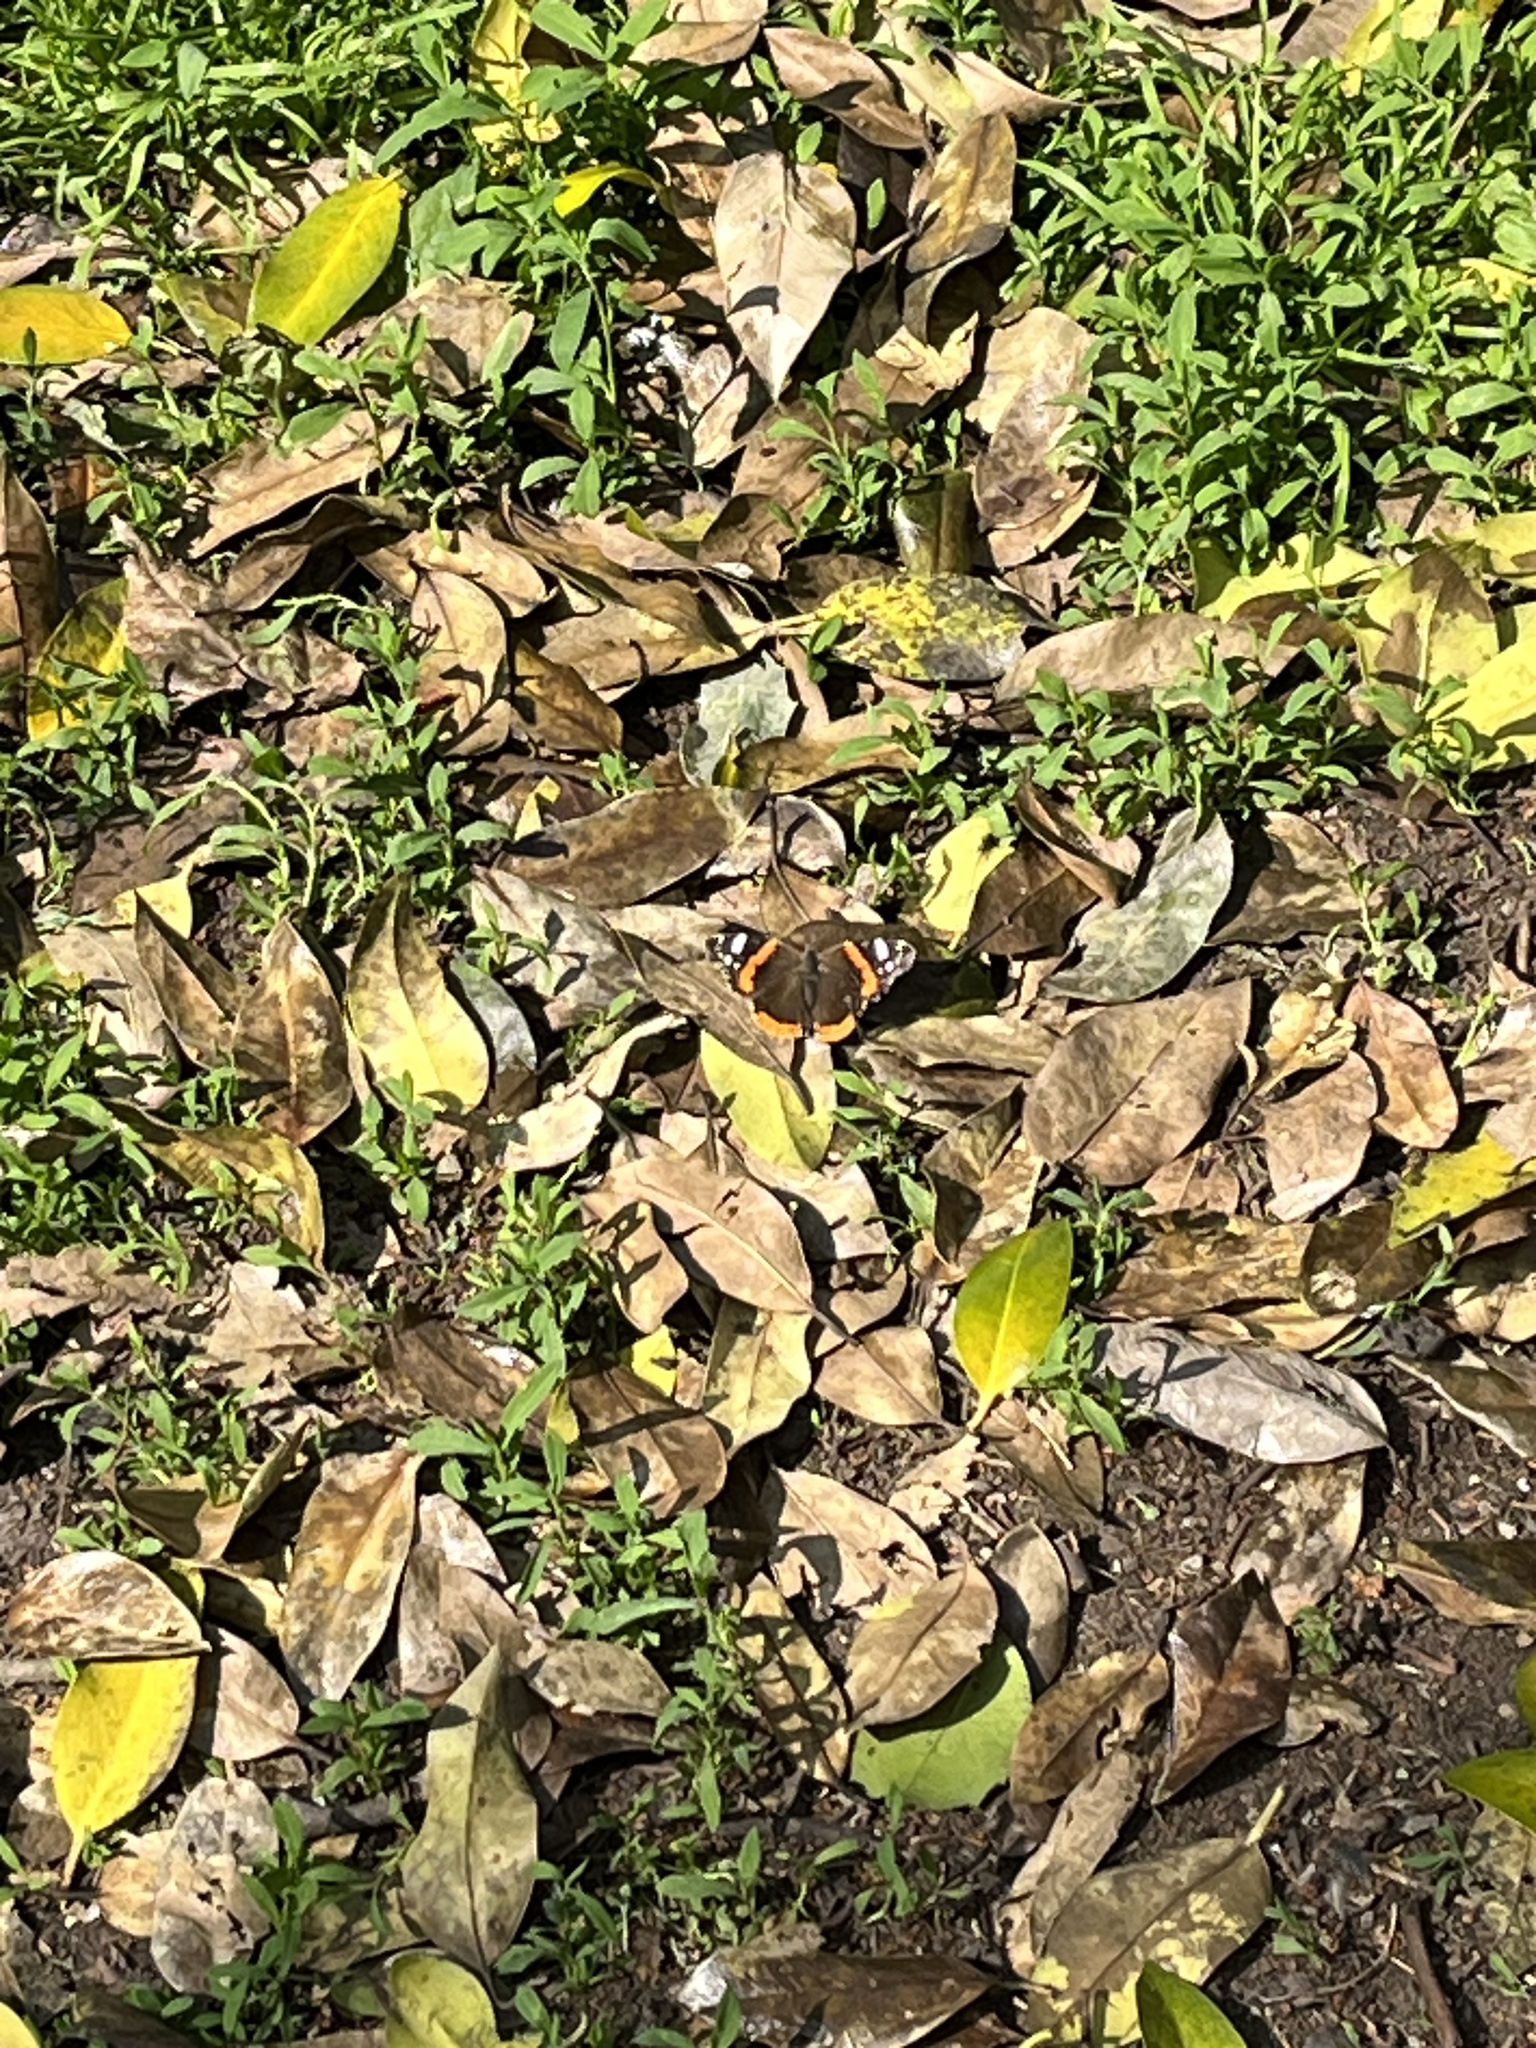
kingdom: Animalia
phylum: Arthropoda
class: Insecta
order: Lepidoptera
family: Nymphalidae
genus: Vanessa
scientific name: Vanessa atalanta
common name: Red admiral
